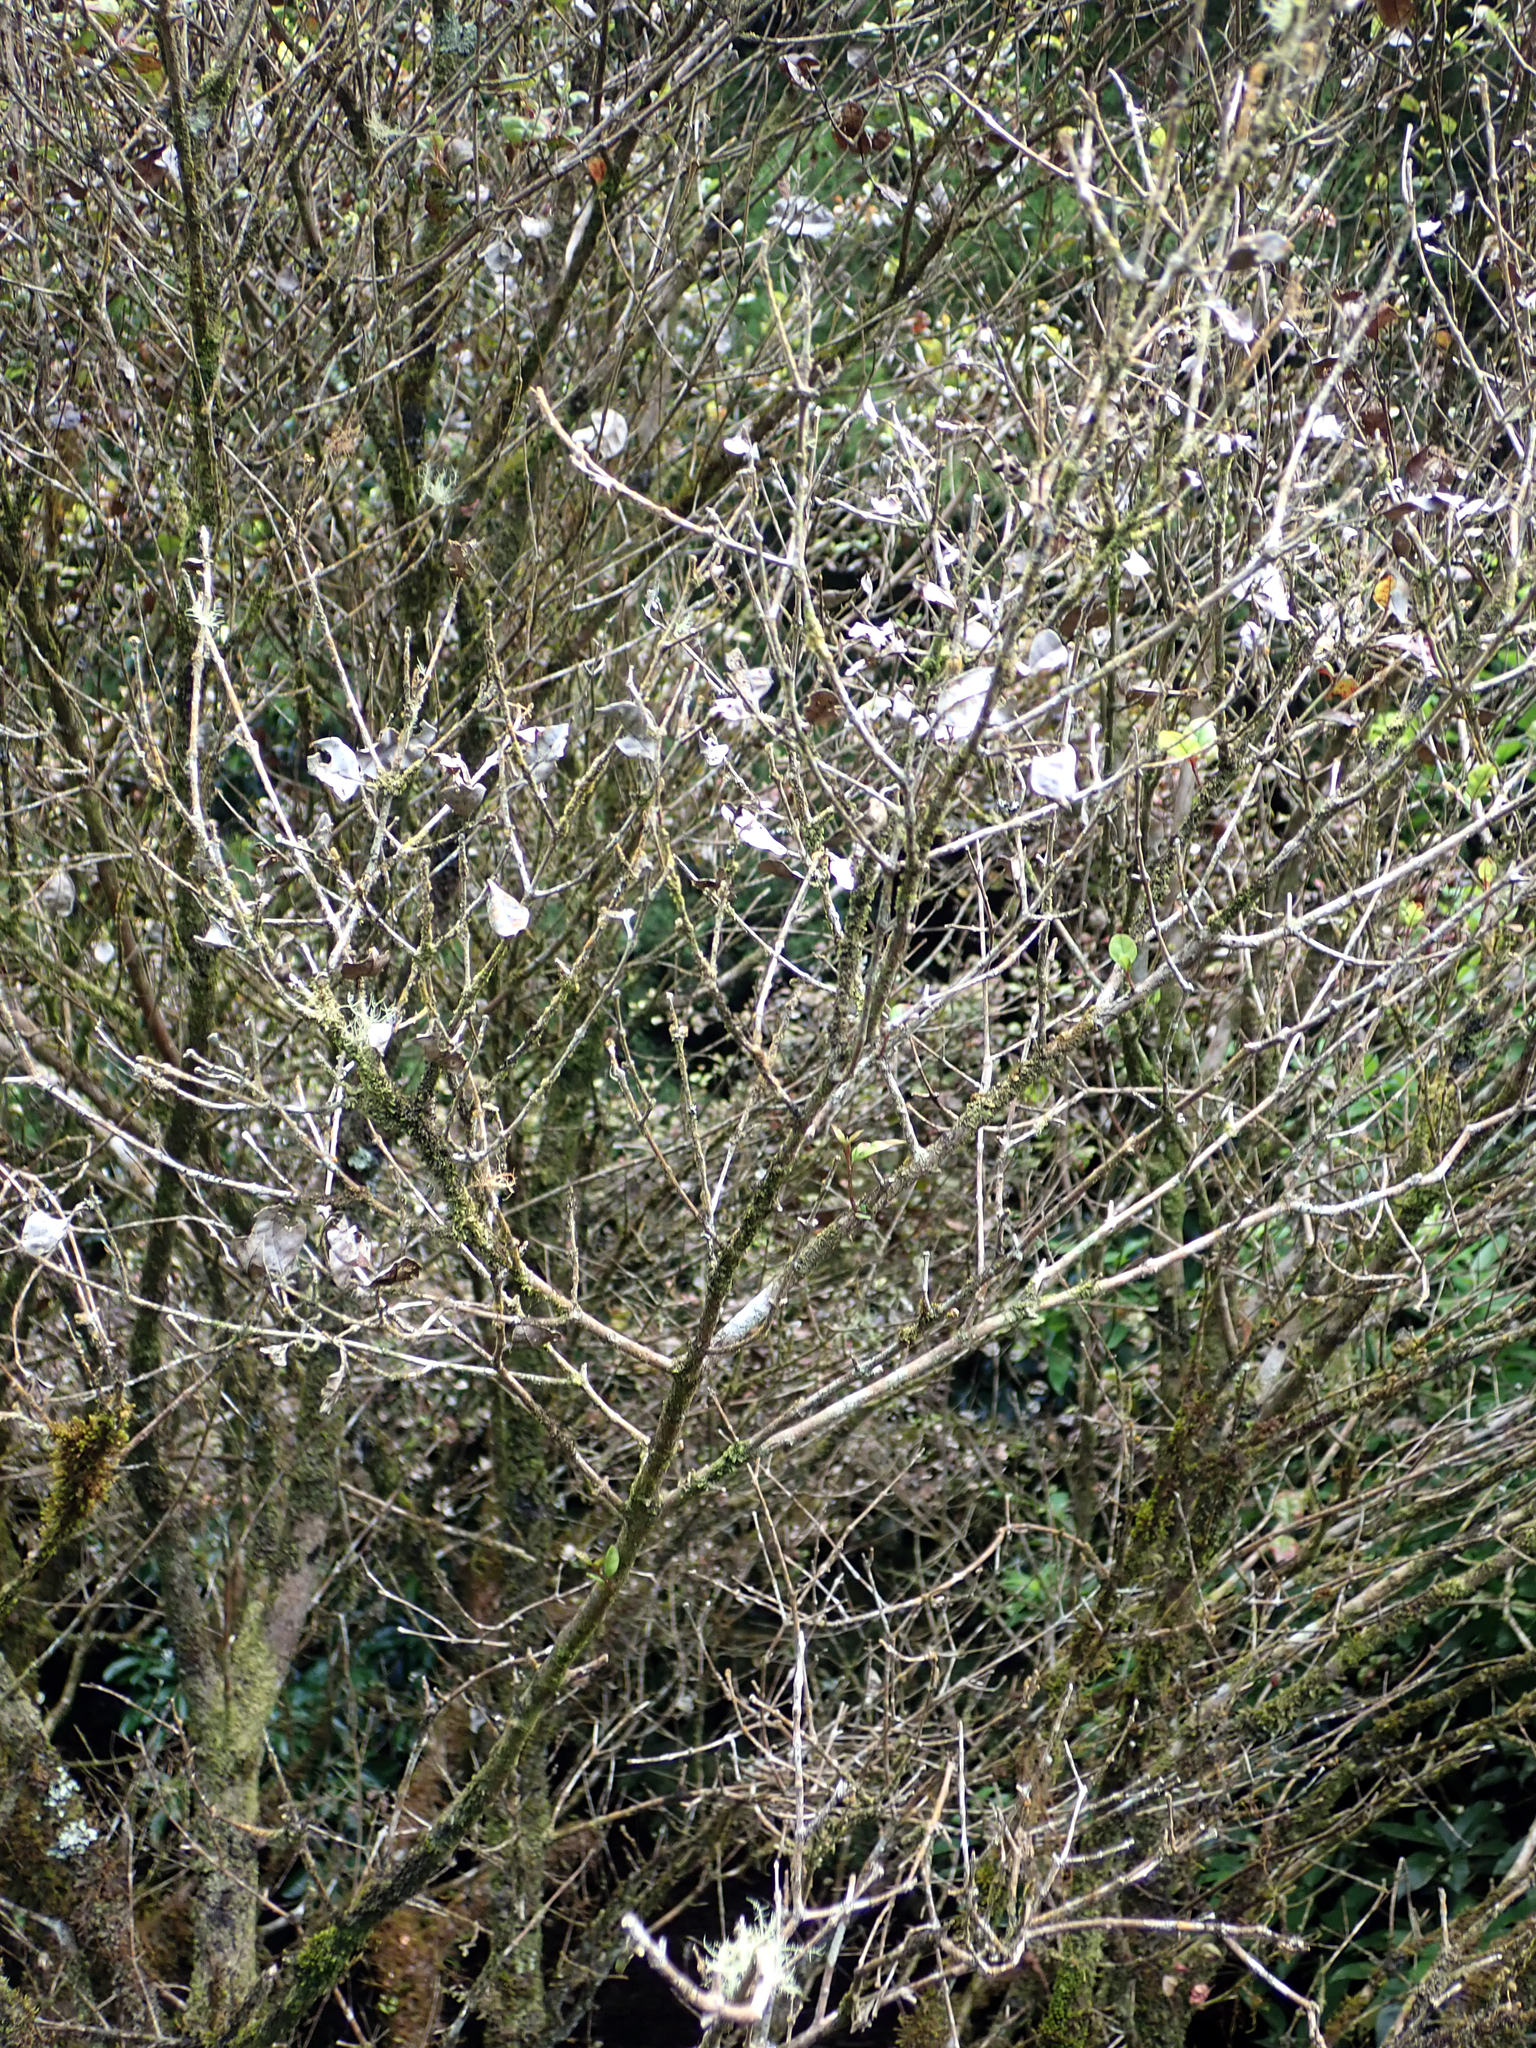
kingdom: Fungi
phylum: Basidiomycota
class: Pucciniomycetes
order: Pucciniales
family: Sphaerophragmiaceae
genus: Austropuccinia
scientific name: Austropuccinia psidii
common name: Myrtle rust
